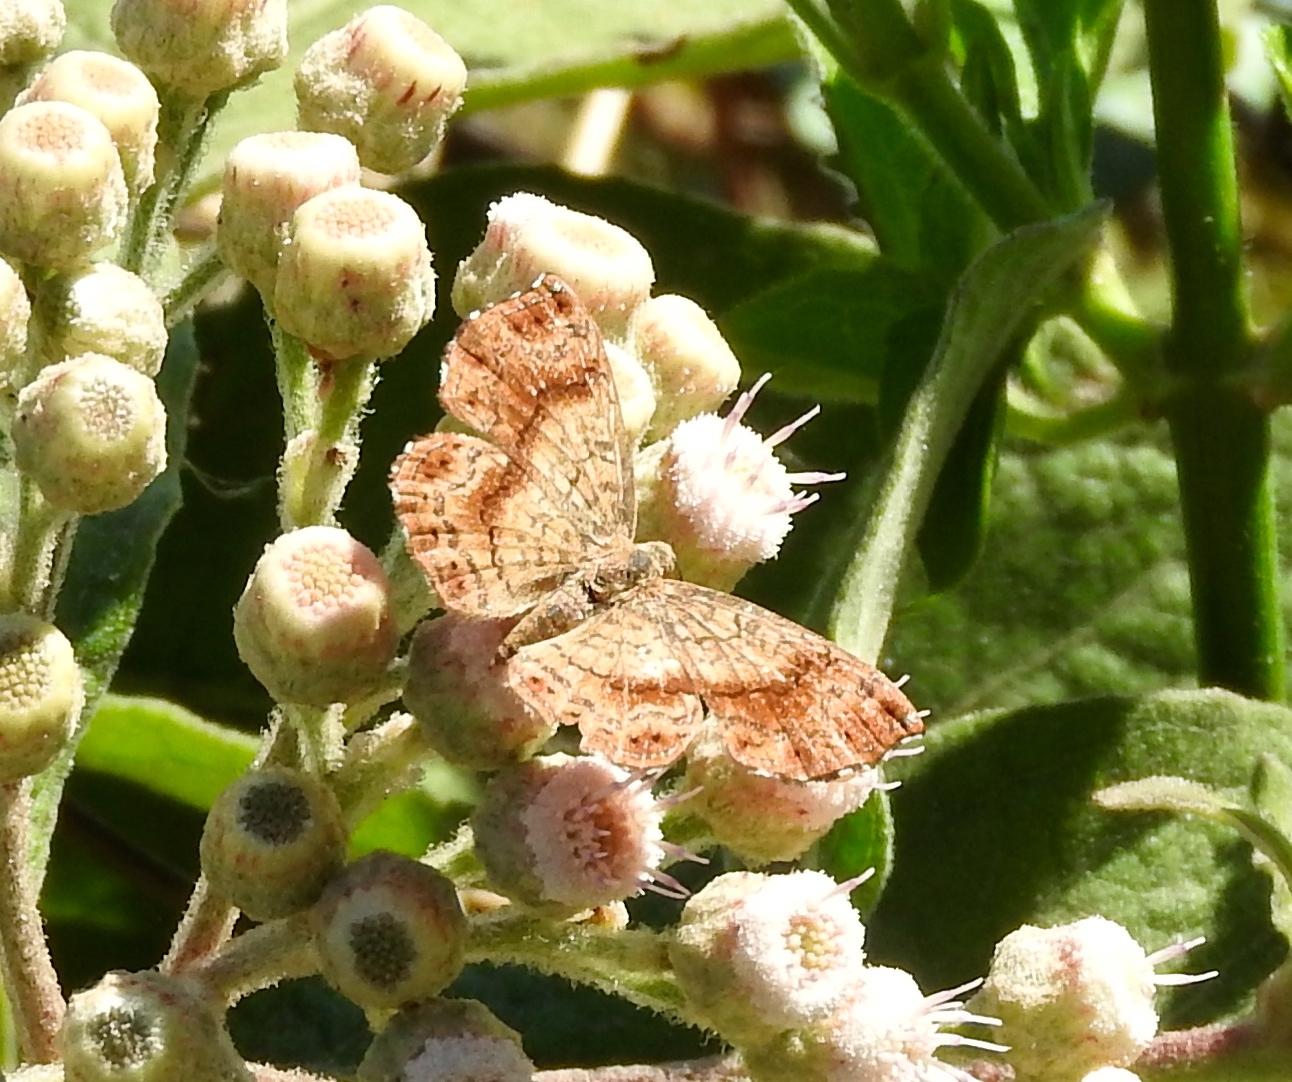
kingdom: Animalia
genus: Calephelis
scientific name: Calephelis
